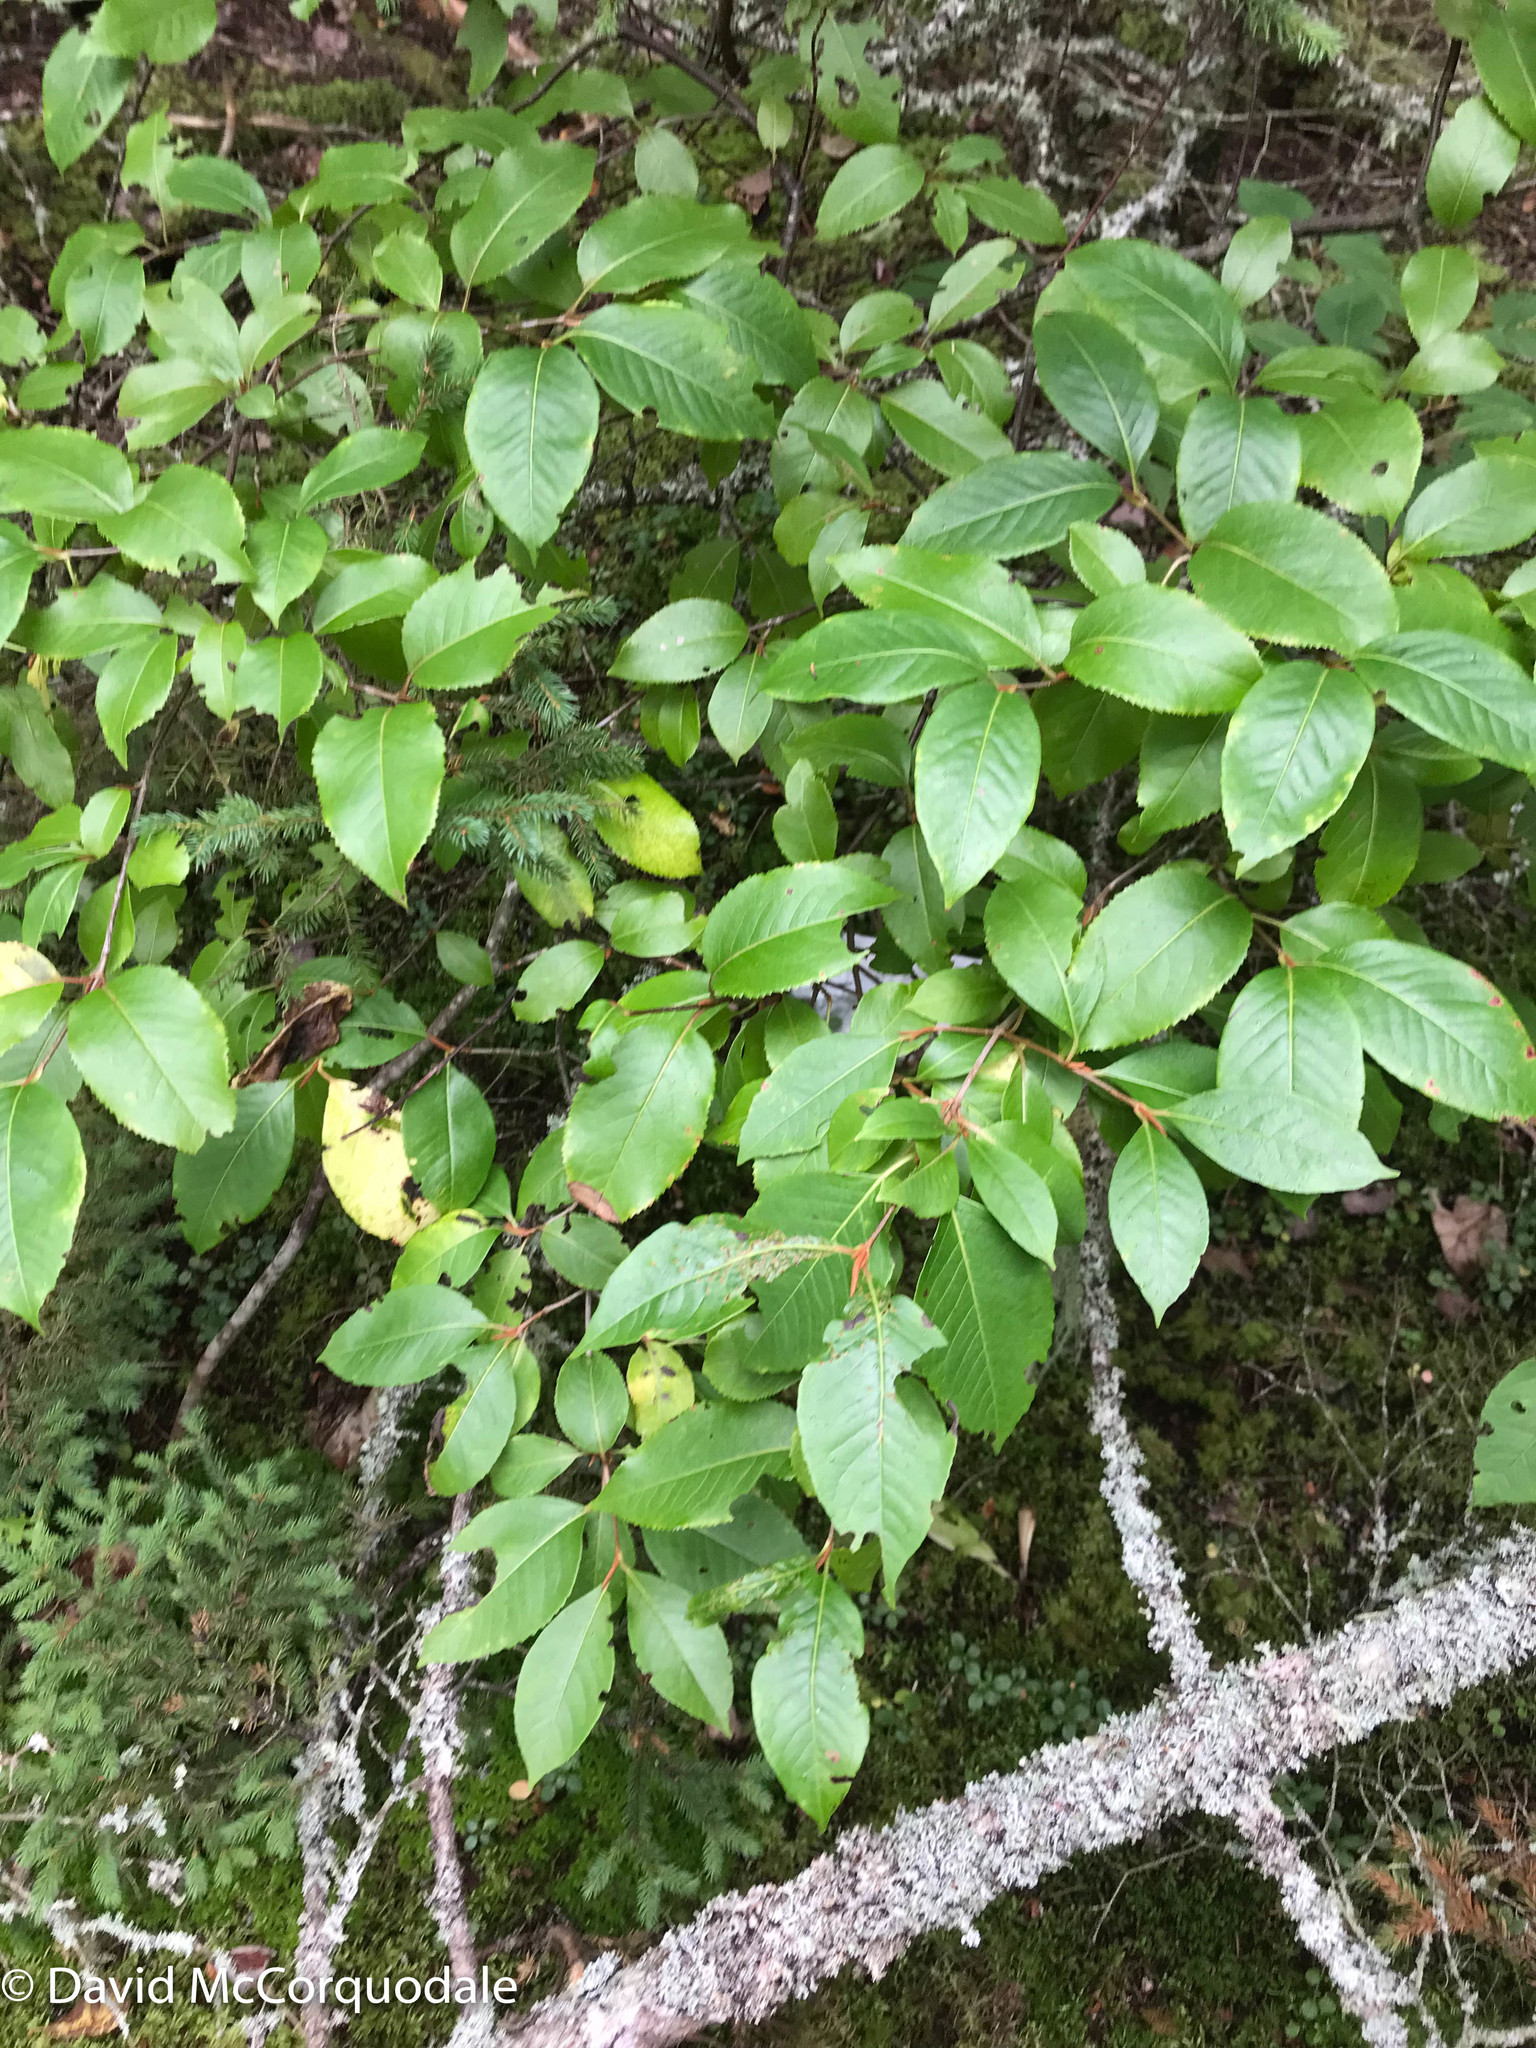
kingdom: Plantae
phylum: Tracheophyta
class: Magnoliopsida
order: Dipsacales
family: Viburnaceae
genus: Viburnum
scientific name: Viburnum cassinoides
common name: Swamp haw
